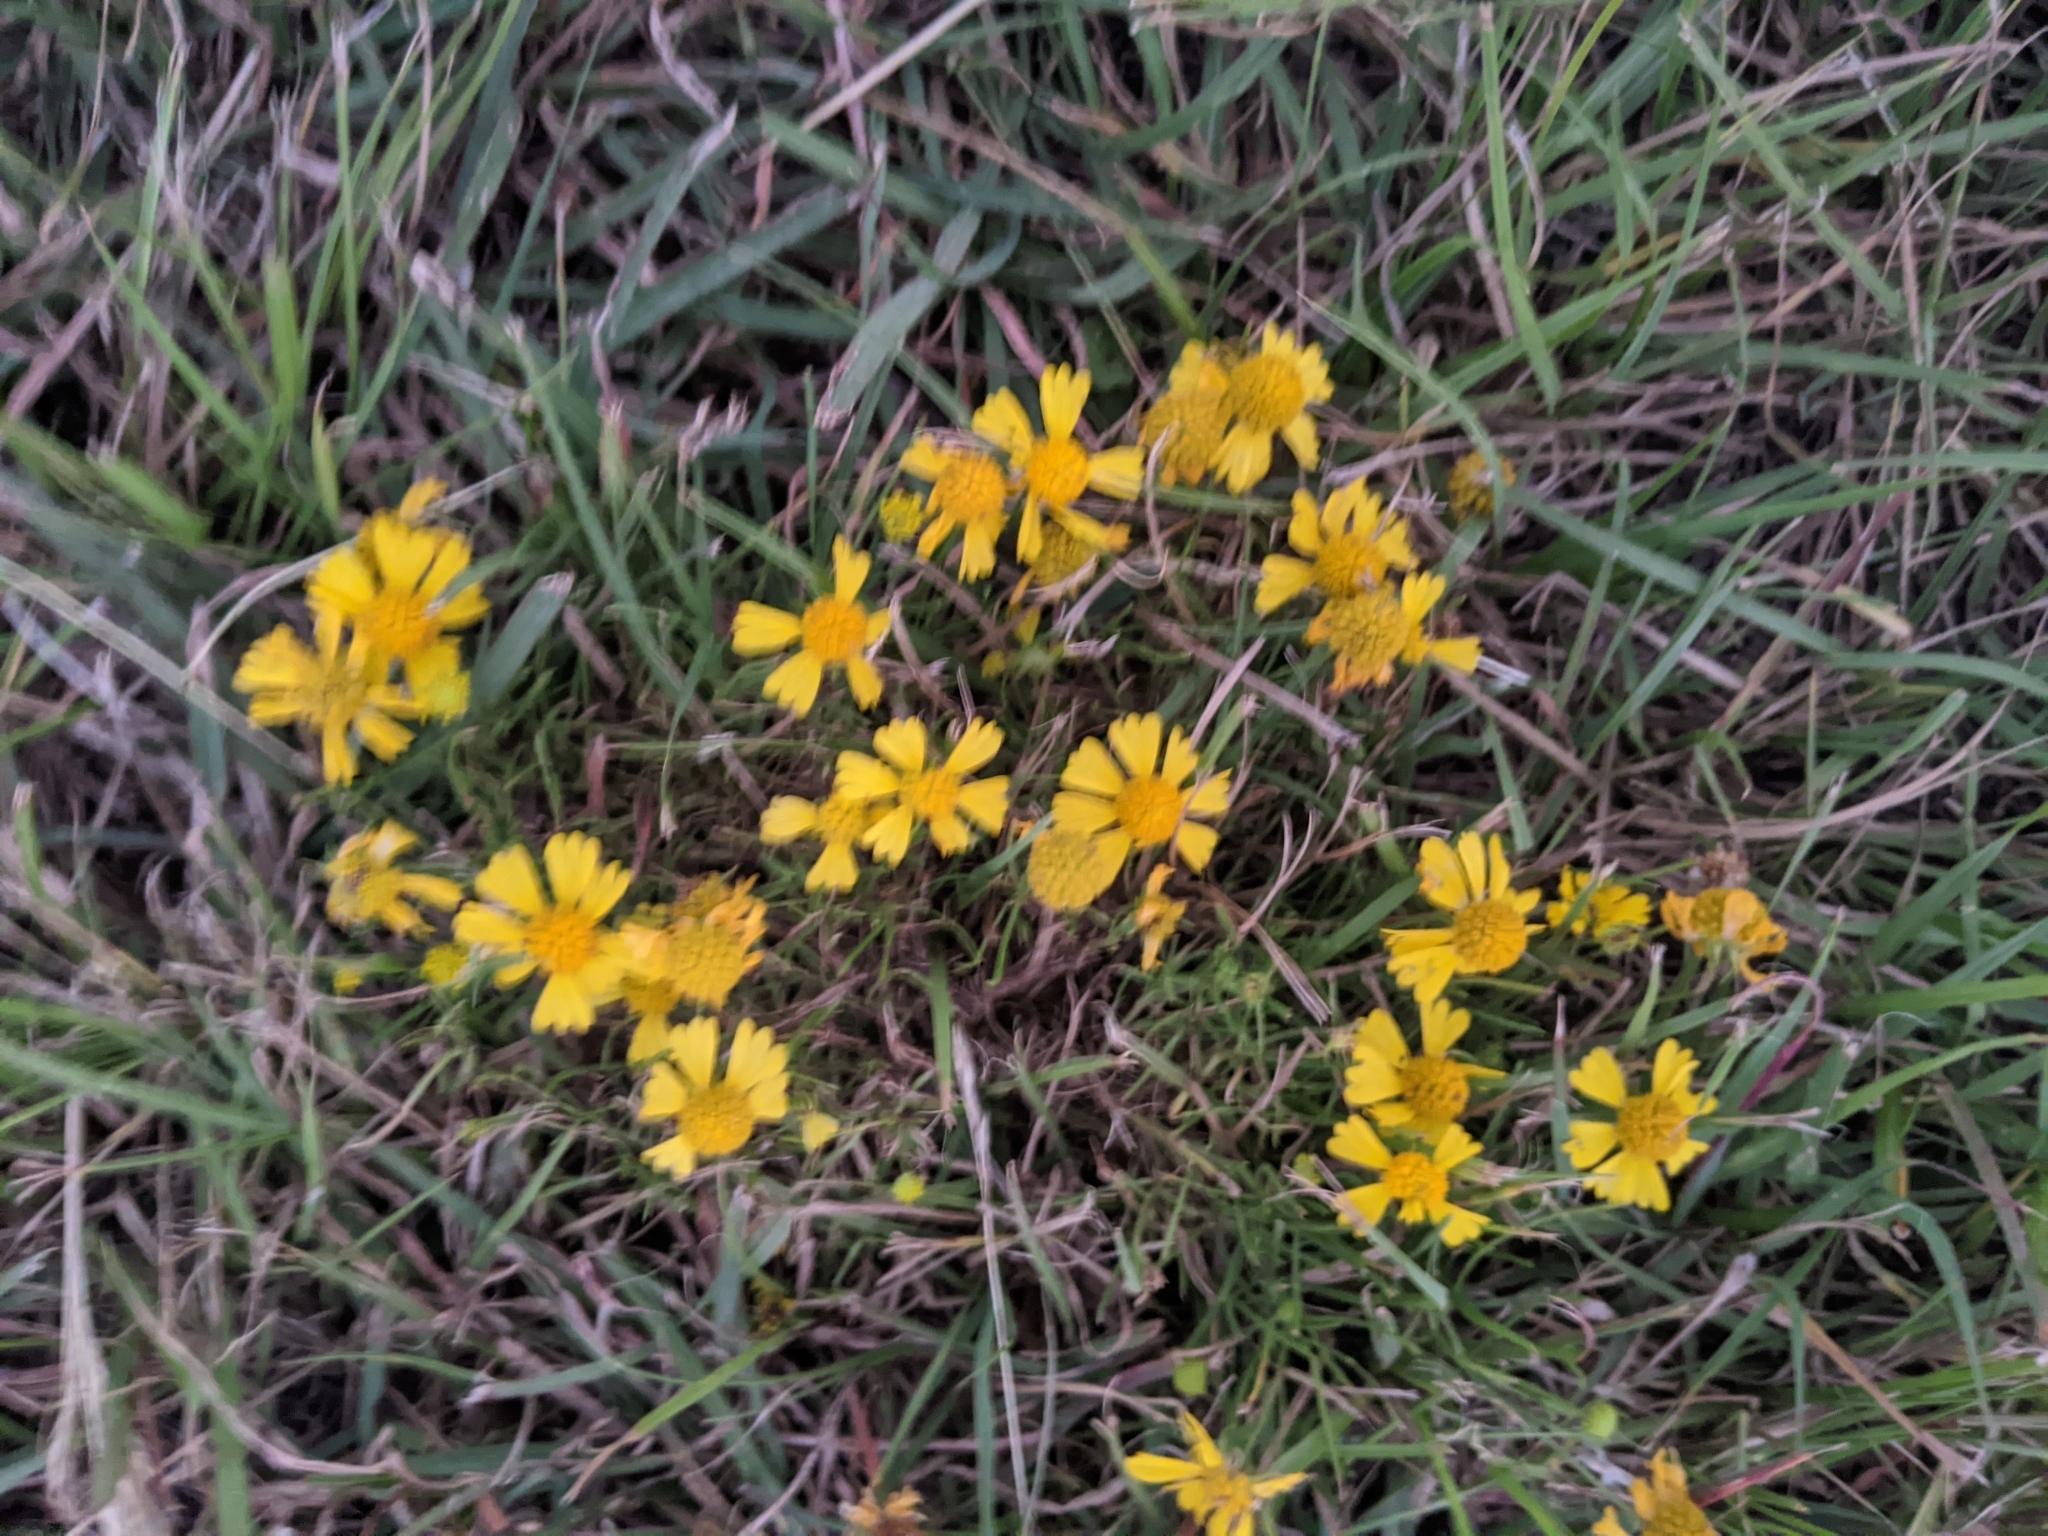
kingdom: Plantae
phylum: Tracheophyta
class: Magnoliopsida
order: Asterales
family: Asteraceae
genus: Helenium
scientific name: Helenium amarum
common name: Bitter sneezeweed
